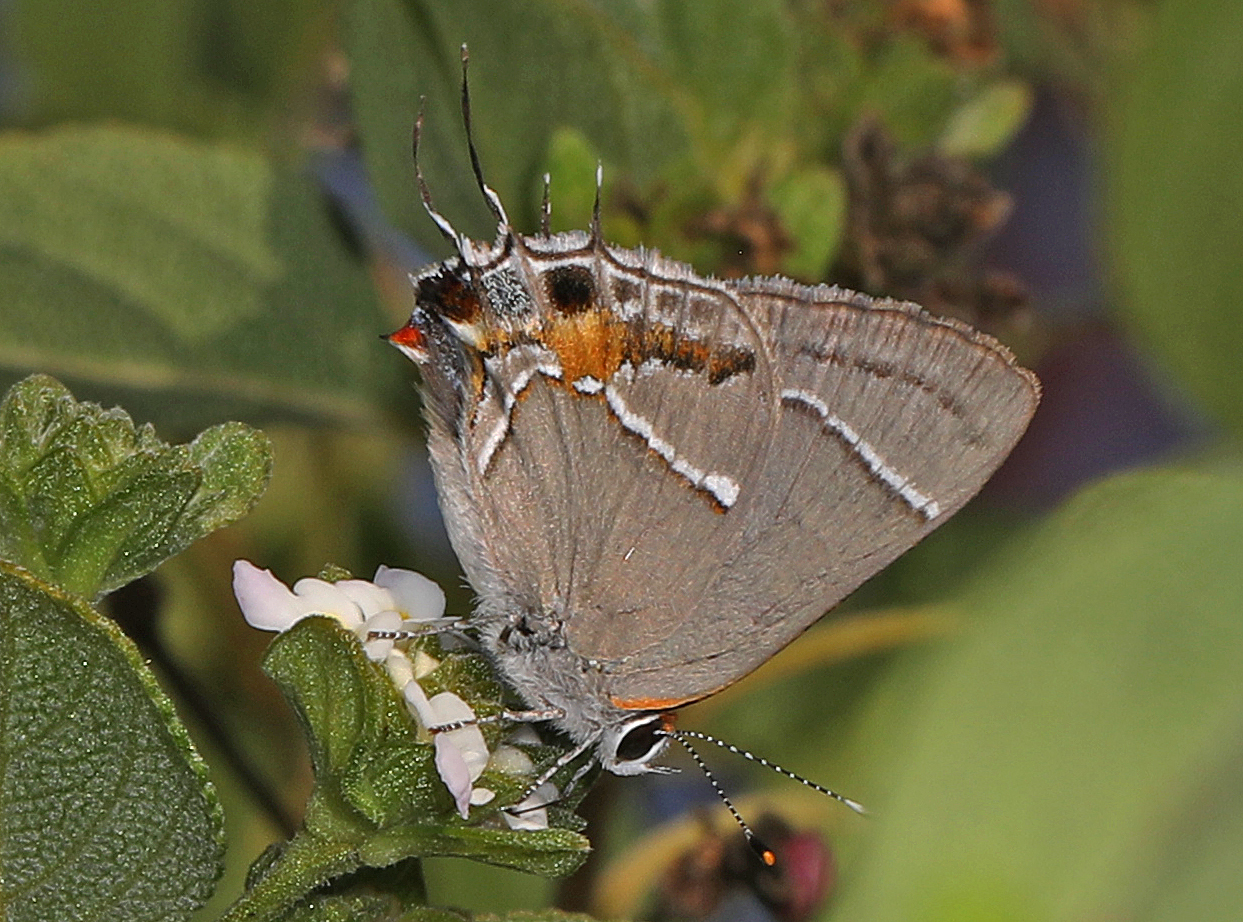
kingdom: Animalia
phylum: Arthropoda
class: Insecta
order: Lepidoptera
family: Lycaenidae
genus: Thecla
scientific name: Thecla martialis
